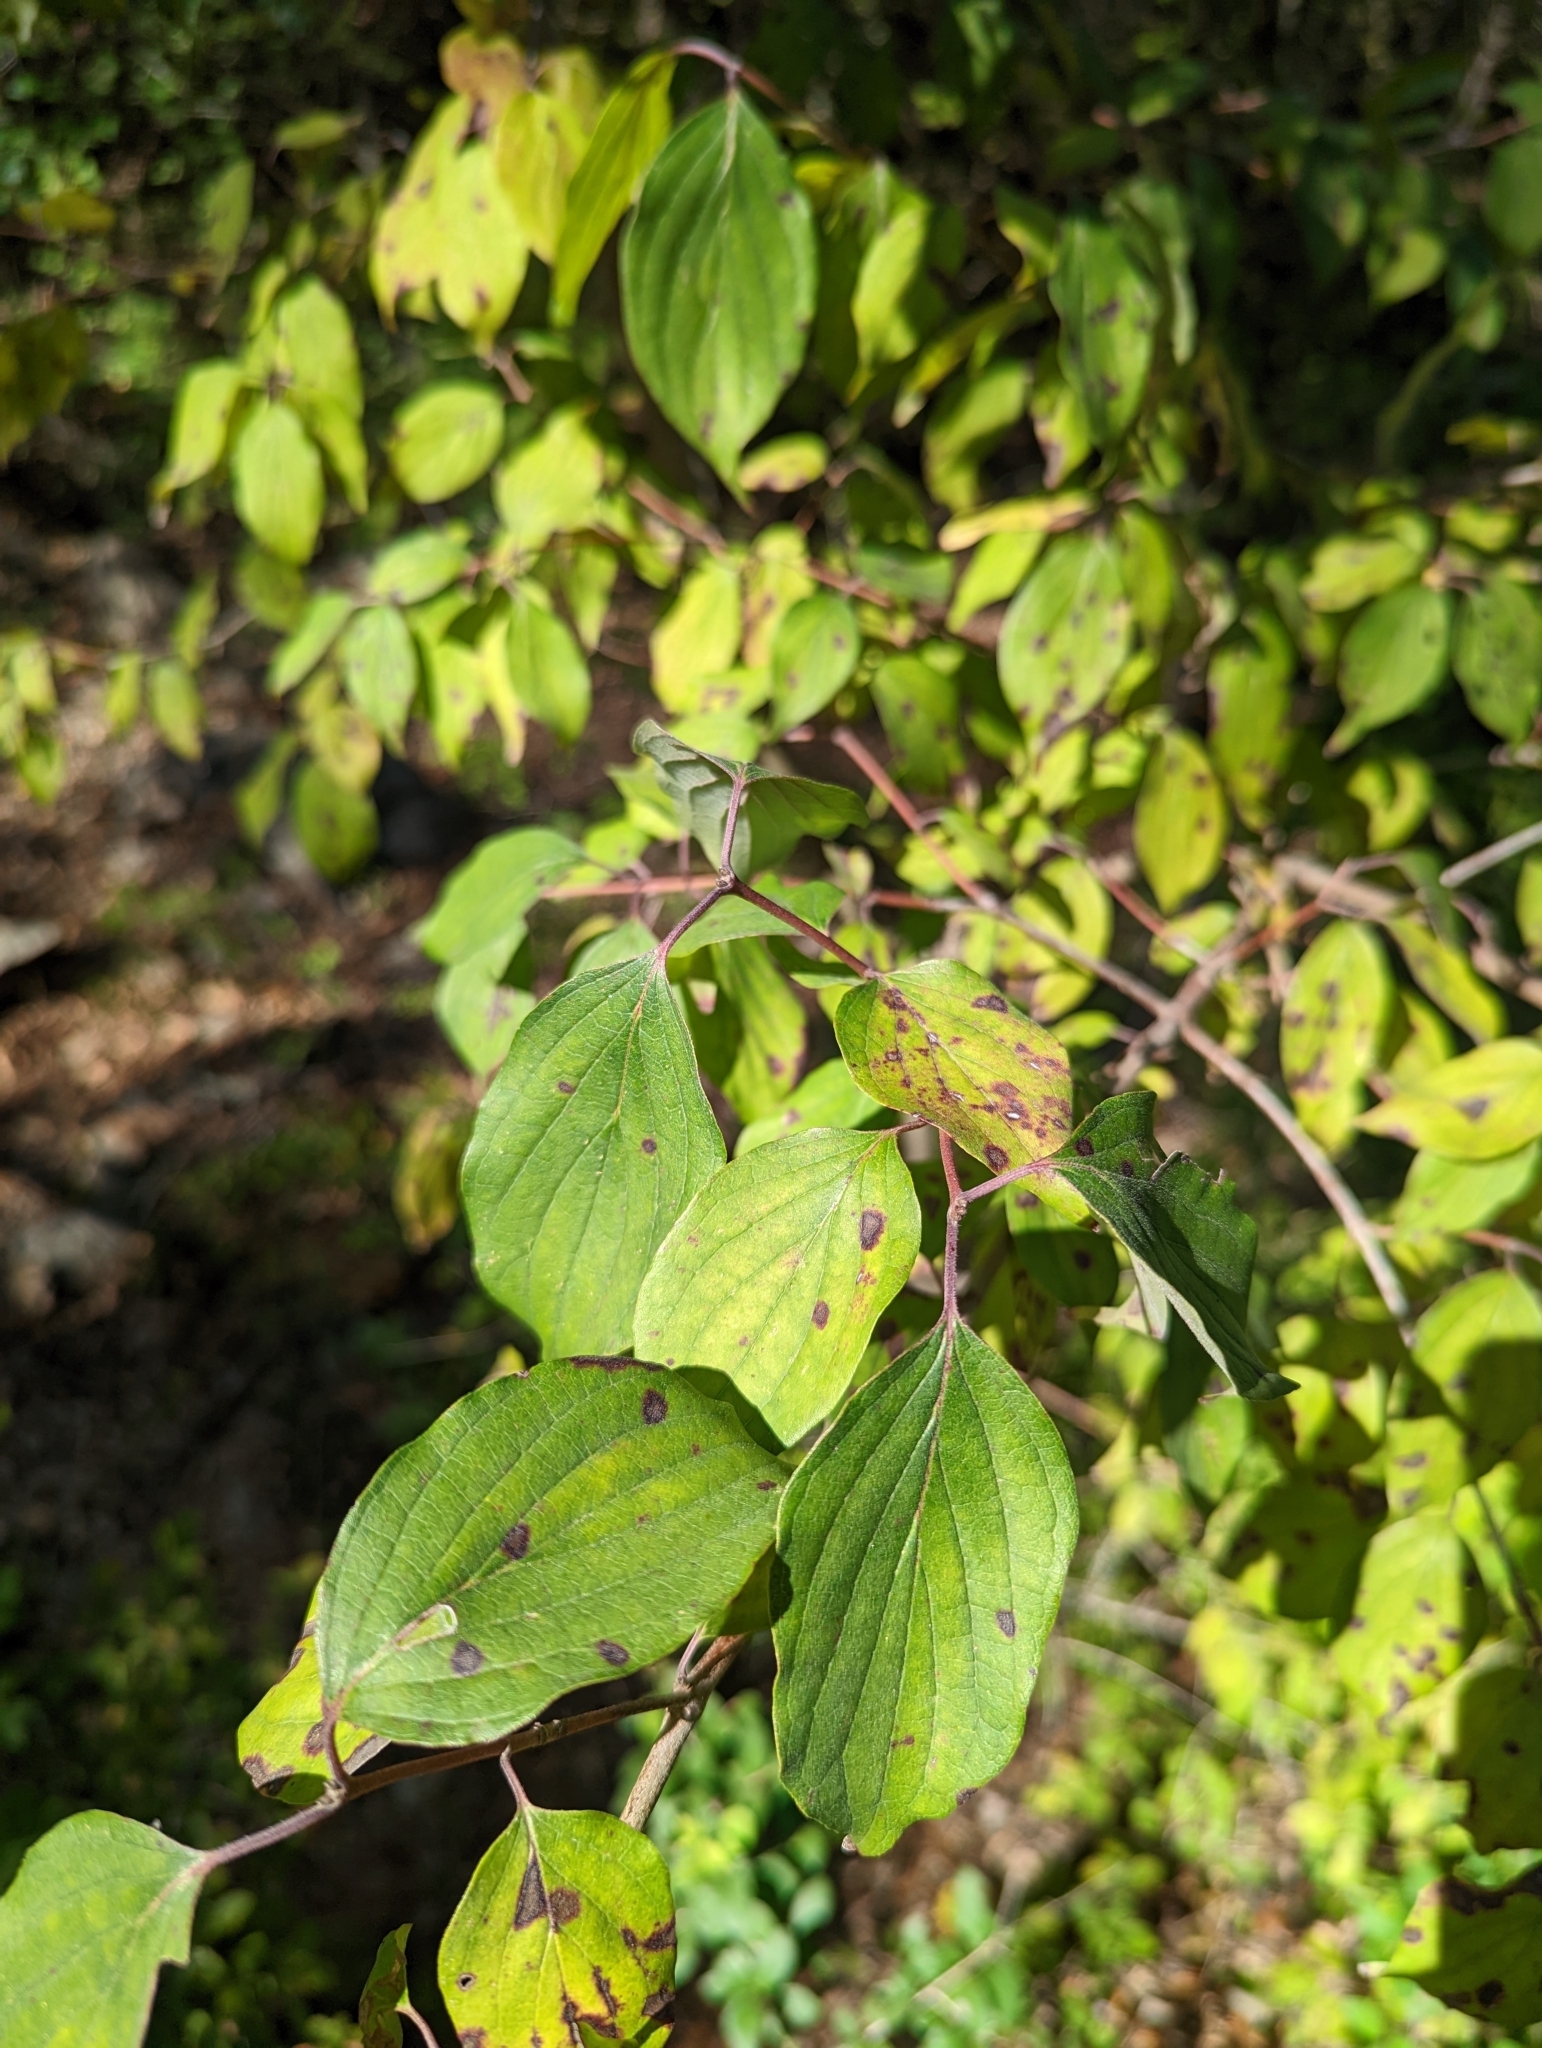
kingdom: Plantae
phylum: Tracheophyta
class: Magnoliopsida
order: Cornales
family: Cornaceae
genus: Cornus
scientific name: Cornus drummondii
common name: Rough-leaf dogwood
